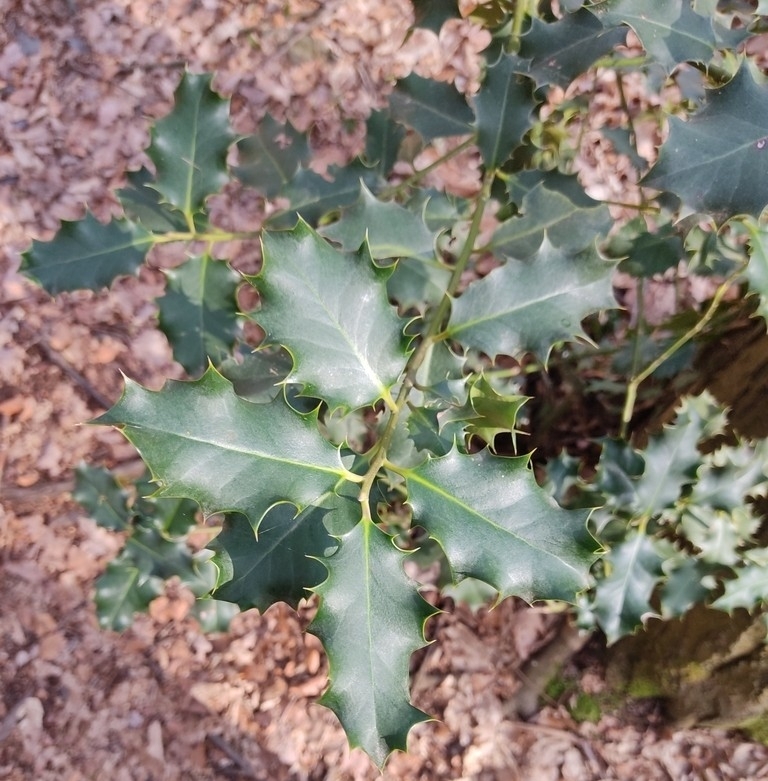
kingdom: Plantae
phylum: Tracheophyta
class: Magnoliopsida
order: Aquifoliales
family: Aquifoliaceae
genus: Ilex
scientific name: Ilex aquifolium
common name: English holly
